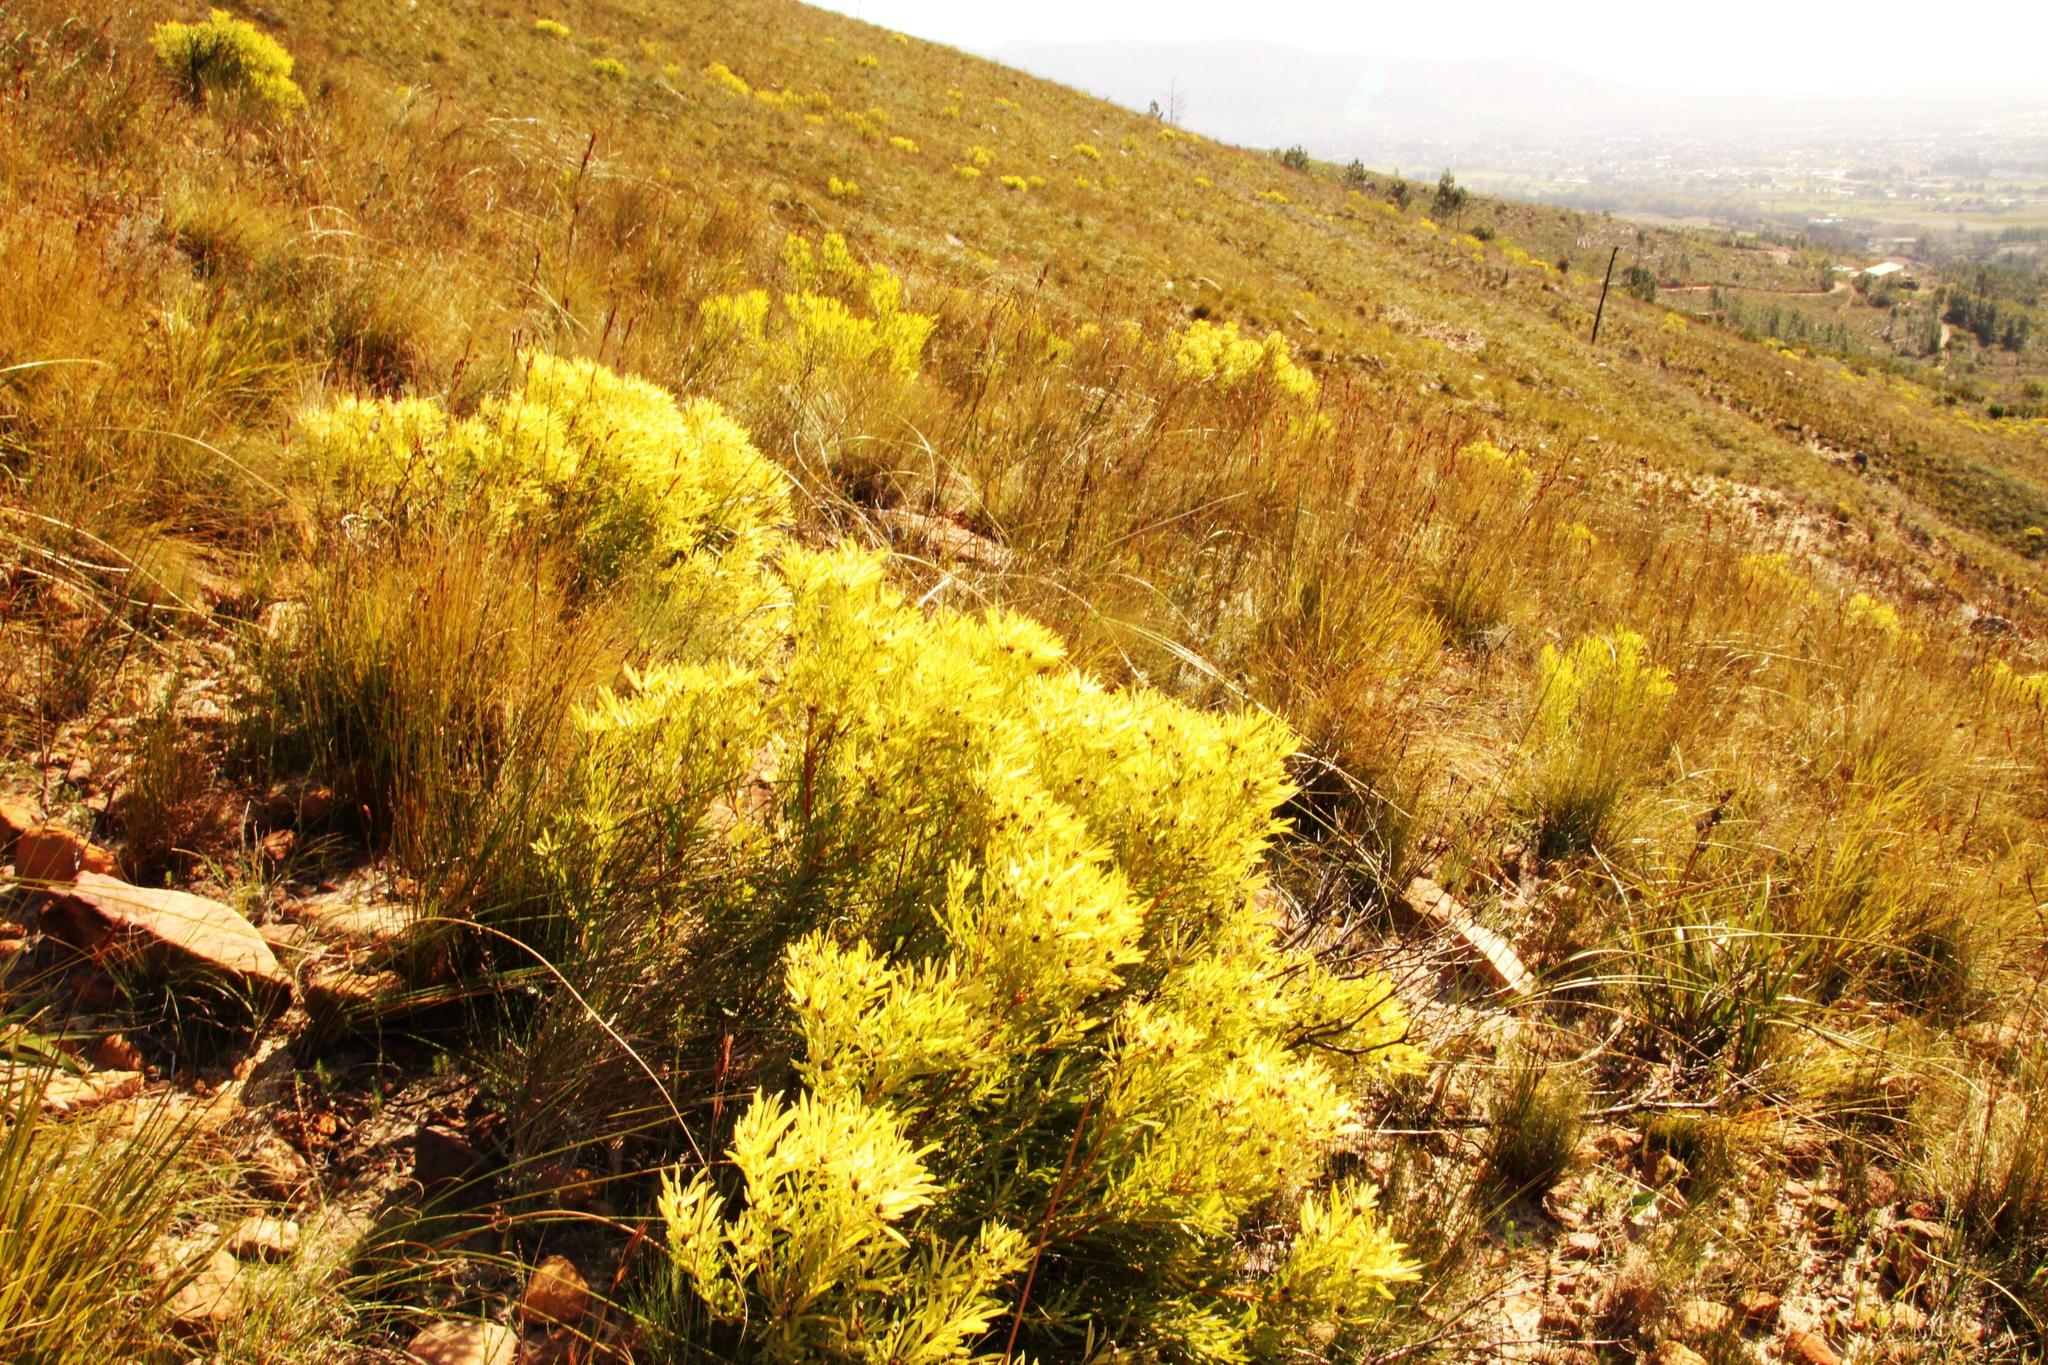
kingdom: Plantae
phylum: Tracheophyta
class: Magnoliopsida
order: Proteales
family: Proteaceae
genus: Leucadendron
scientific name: Leucadendron salignum
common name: Common sunshine conebush
